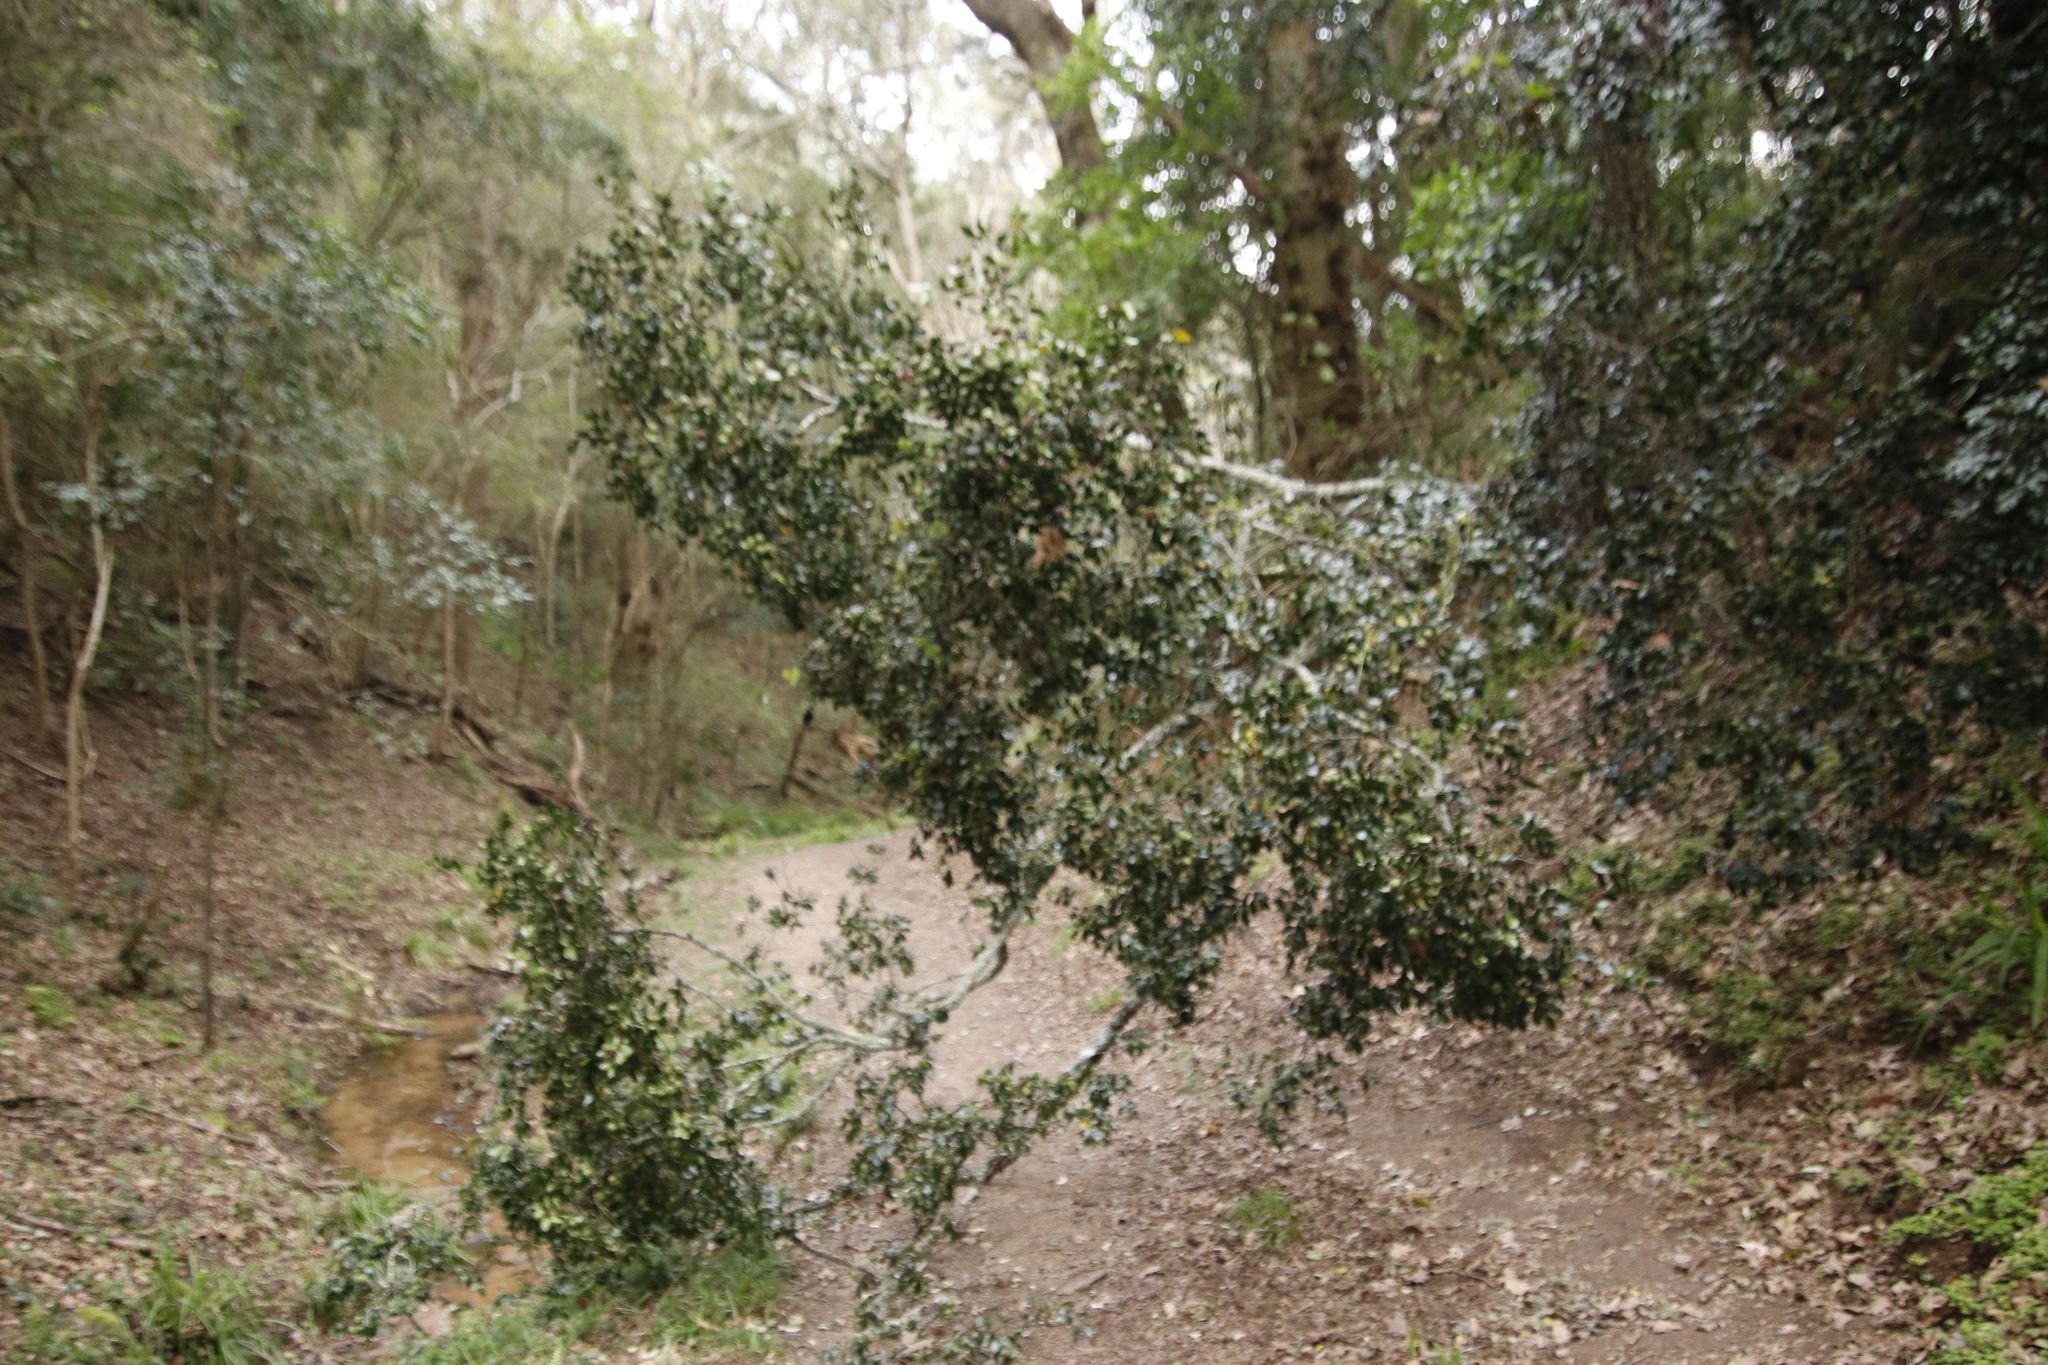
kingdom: Plantae
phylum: Tracheophyta
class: Magnoliopsida
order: Ericales
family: Ebenaceae
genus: Diospyros
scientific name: Diospyros whyteana
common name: Bladder-nut
